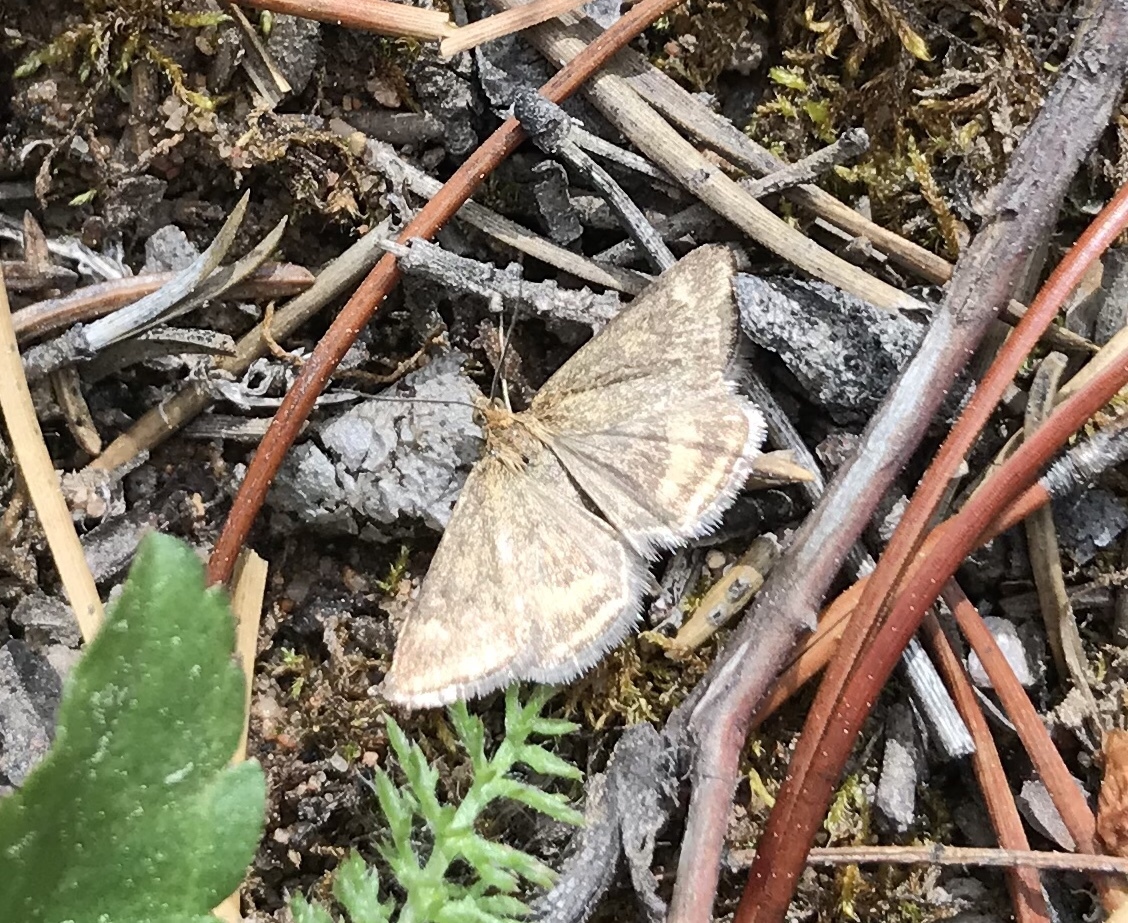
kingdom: Animalia
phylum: Arthropoda
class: Insecta
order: Lepidoptera
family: Crambidae
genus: Pyrausta
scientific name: Pyrausta unifascialis
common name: One-banded pyrausta
